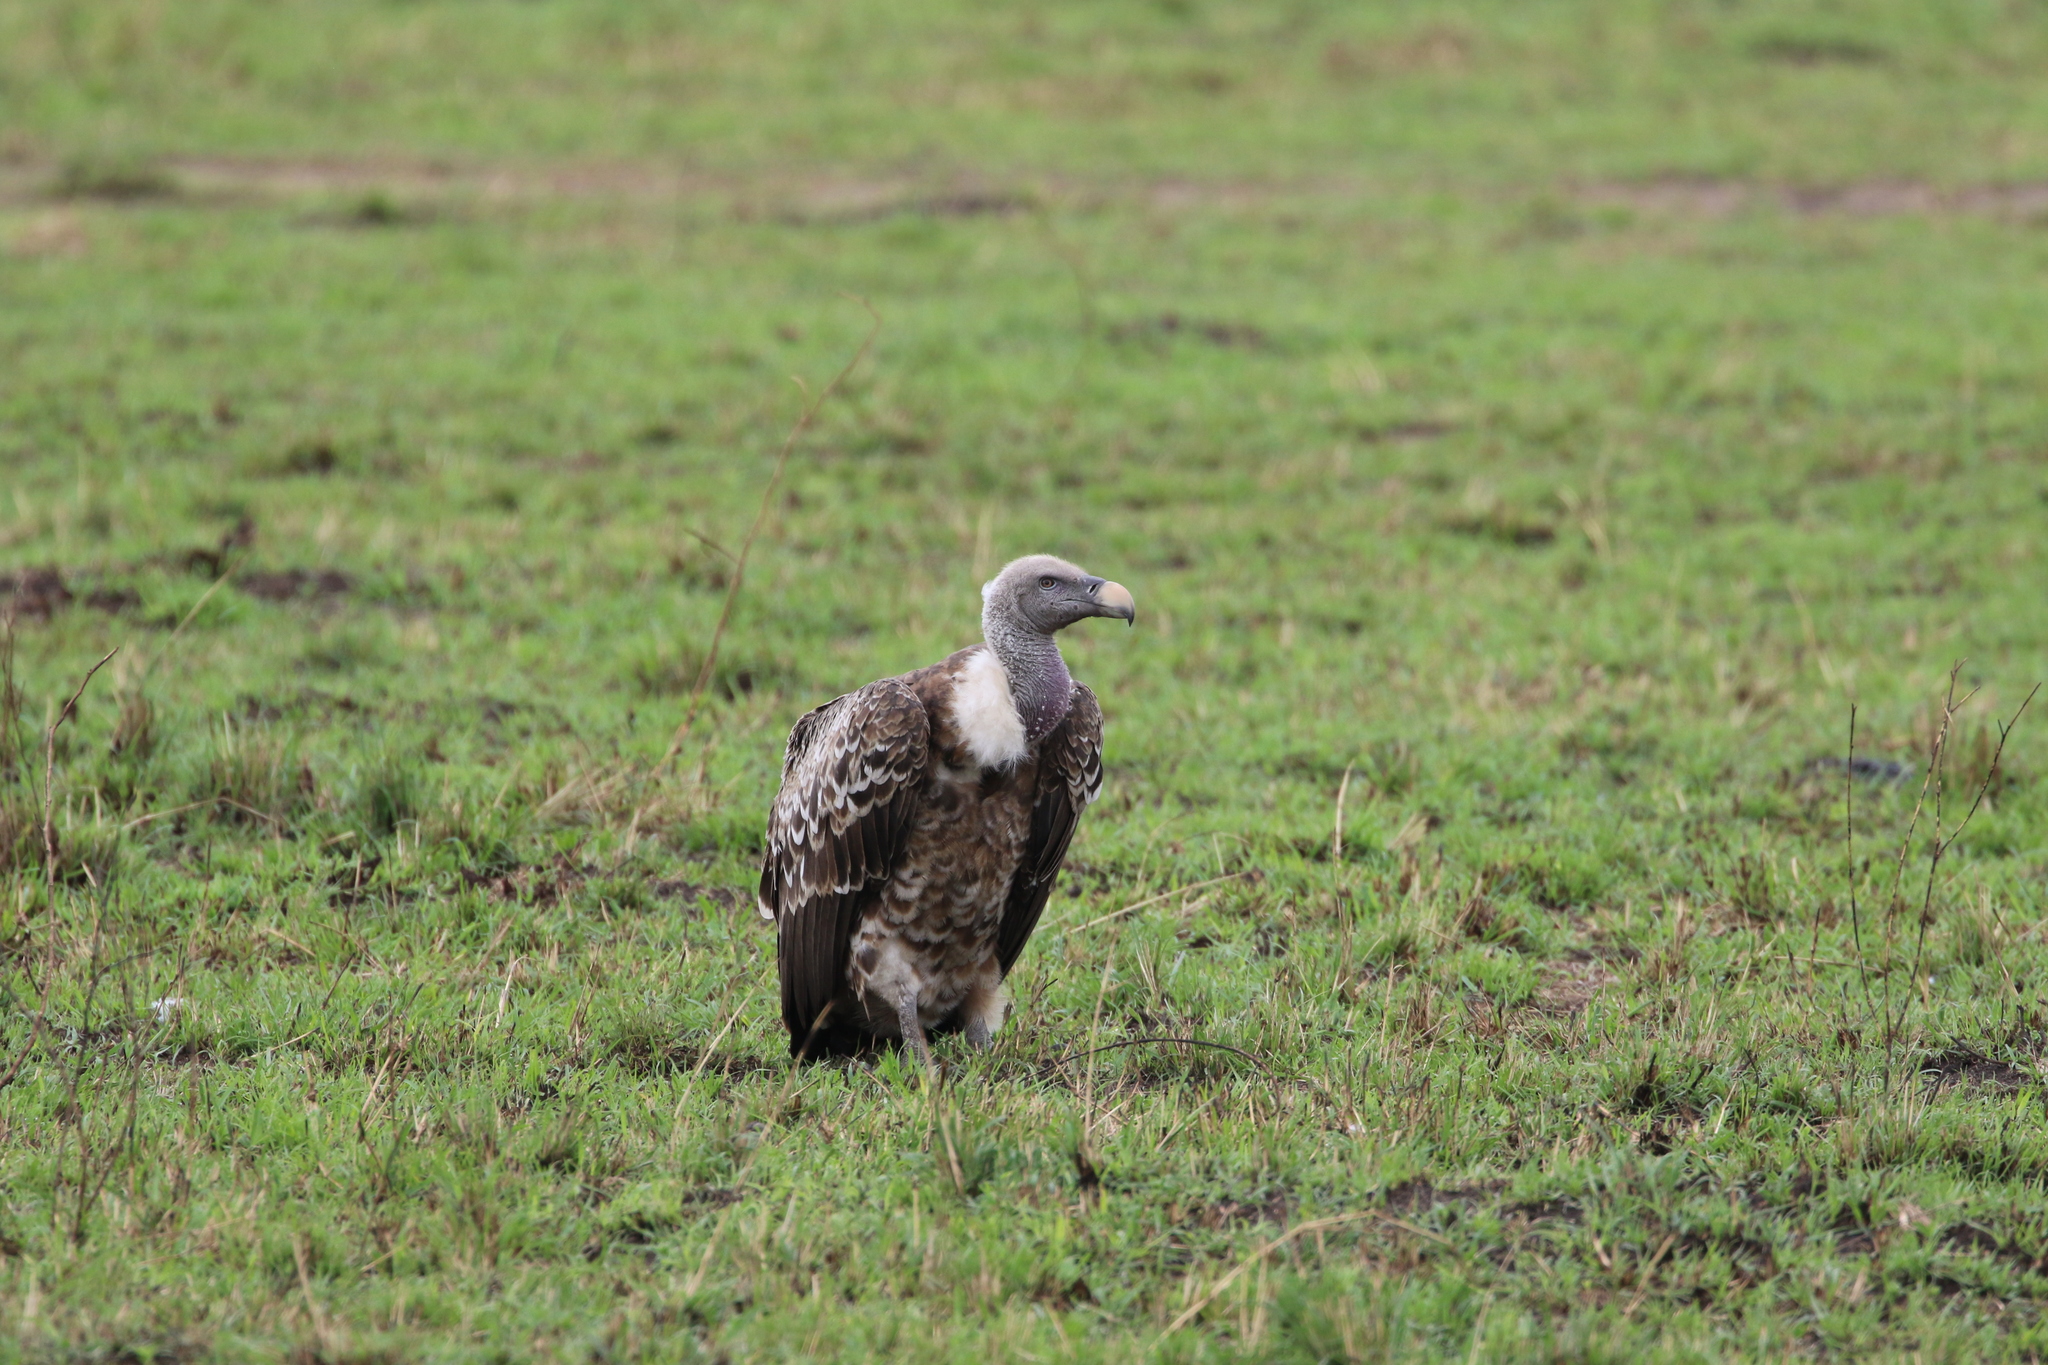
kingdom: Animalia
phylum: Chordata
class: Aves
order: Accipitriformes
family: Accipitridae
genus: Gyps
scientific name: Gyps rueppellii
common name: Rüppell's vulture
